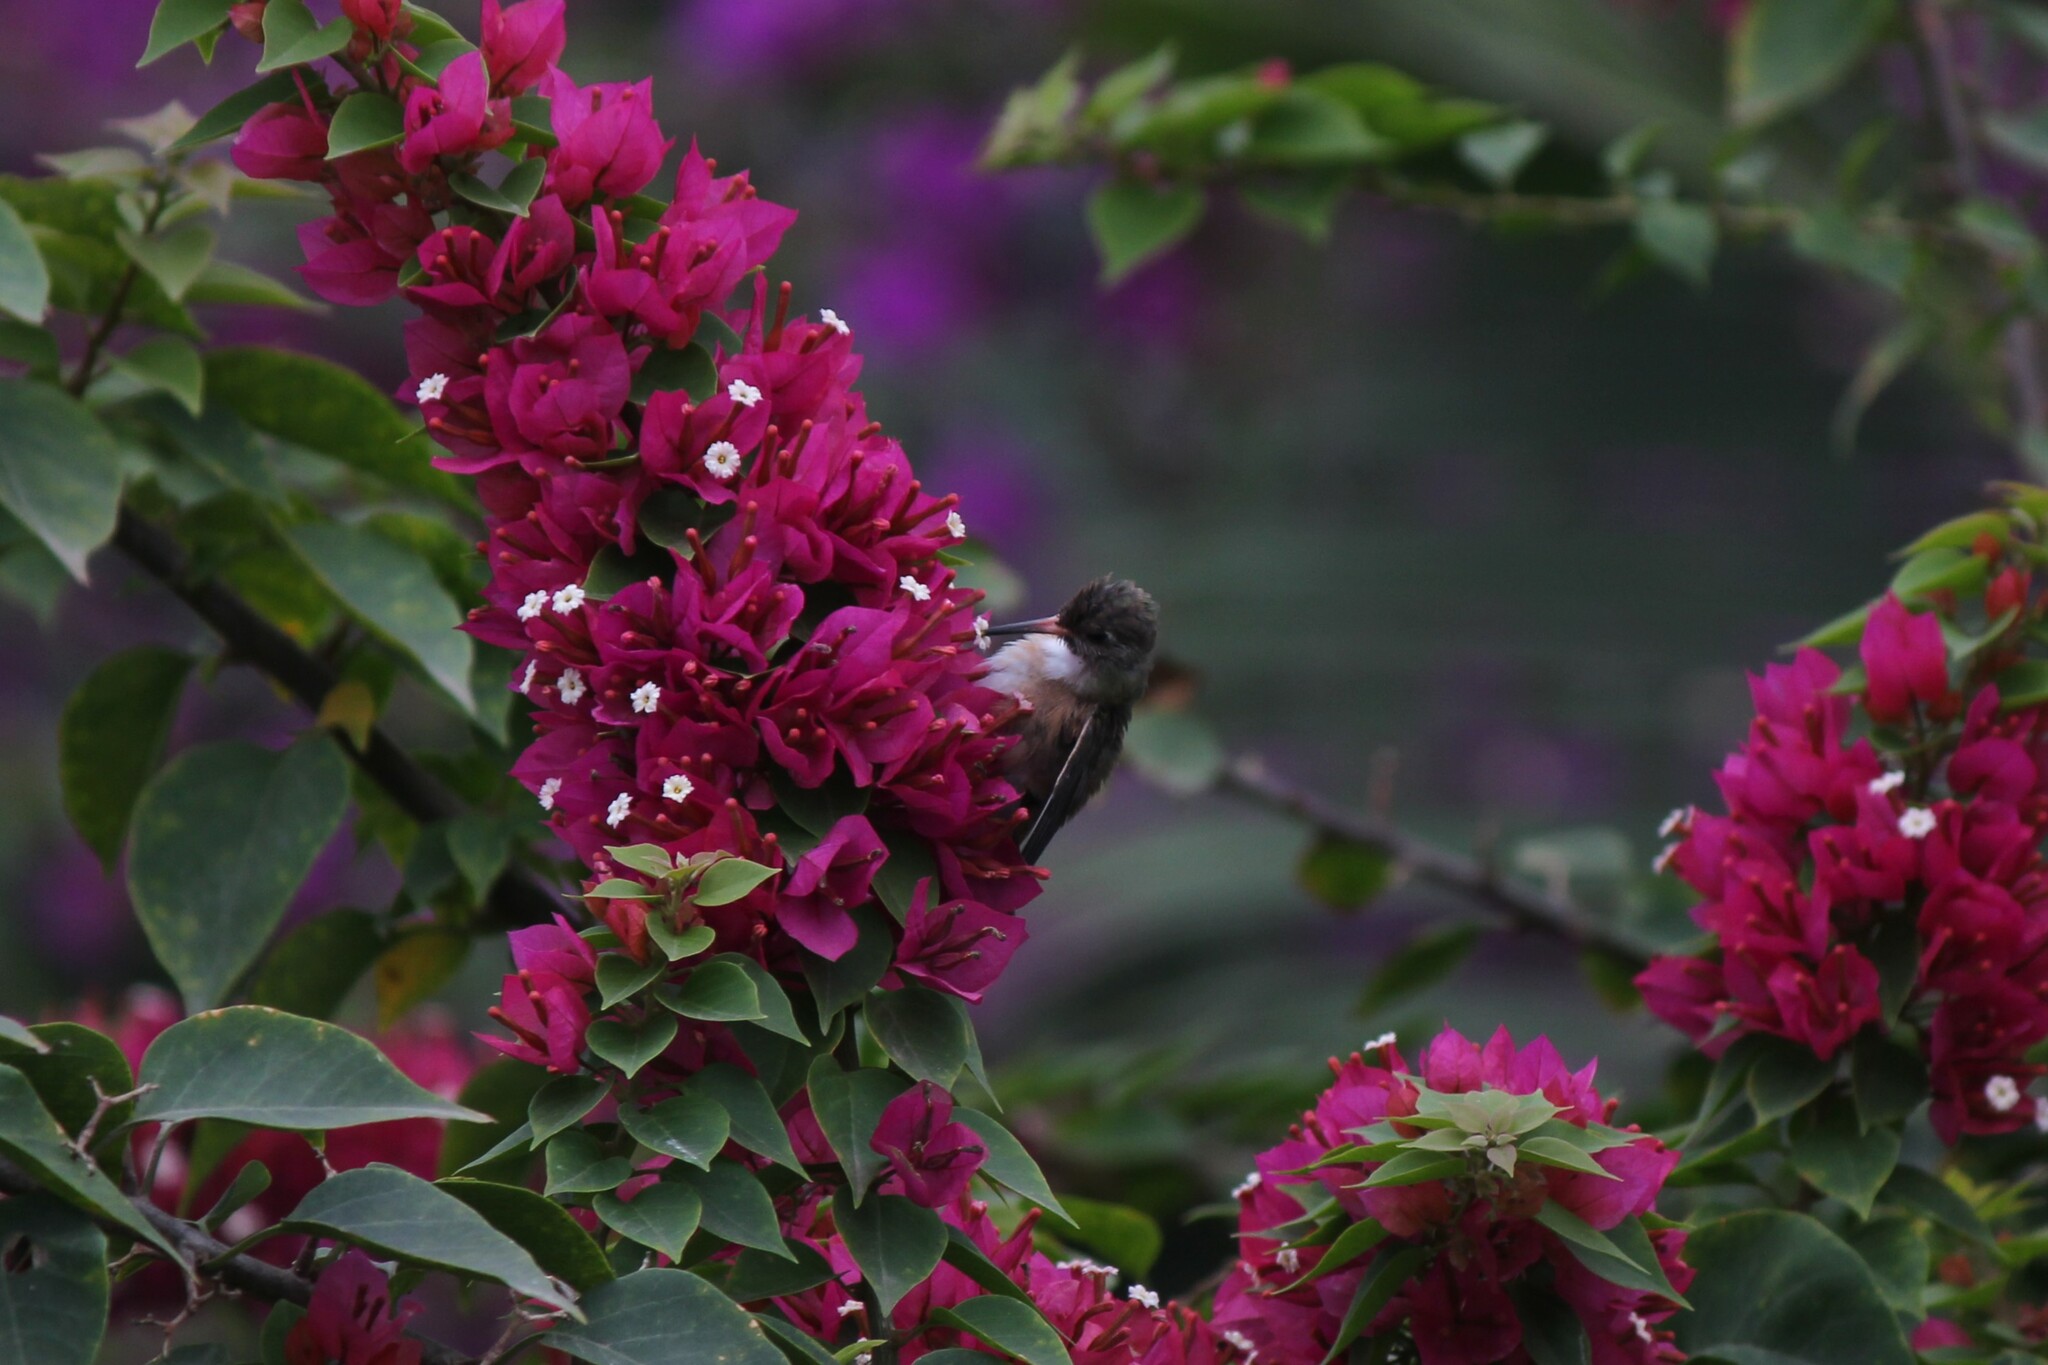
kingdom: Animalia
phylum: Chordata
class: Aves
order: Apodiformes
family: Trochilidae
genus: Amazilis
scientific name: Amazilis amazilia
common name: Amazilia hummingbird
